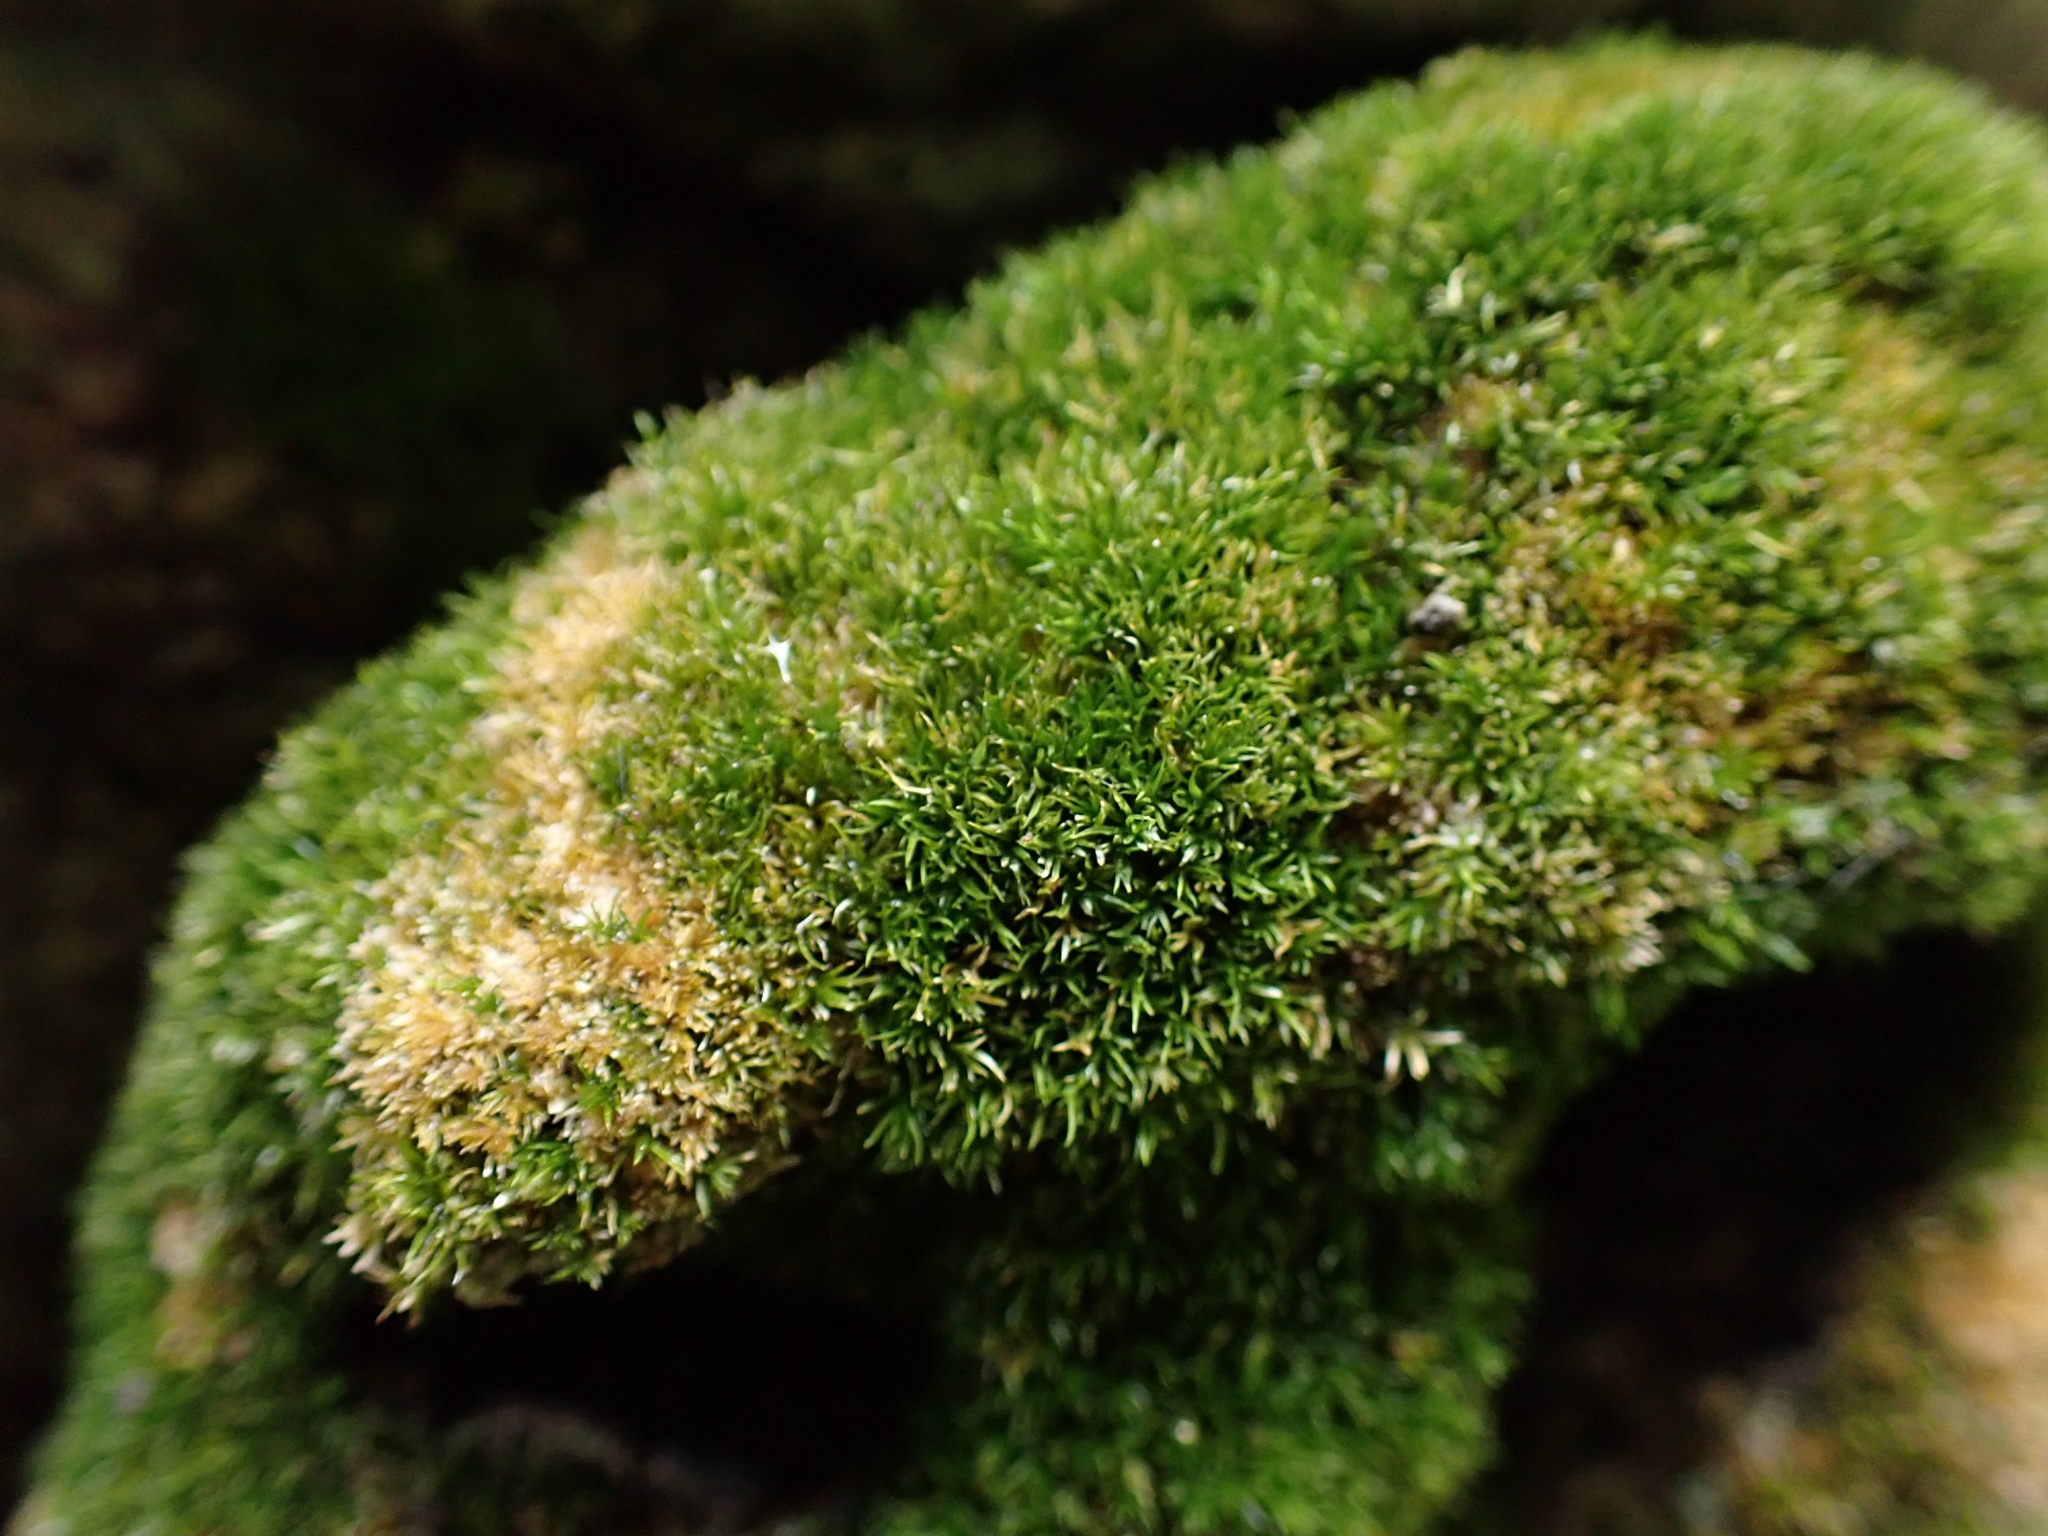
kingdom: Plantae
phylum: Bryophyta
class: Bryopsida
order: Pottiales
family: Pottiaceae
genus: Eucladium
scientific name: Eucladium verticillatum
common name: Whorled tufa-moss
